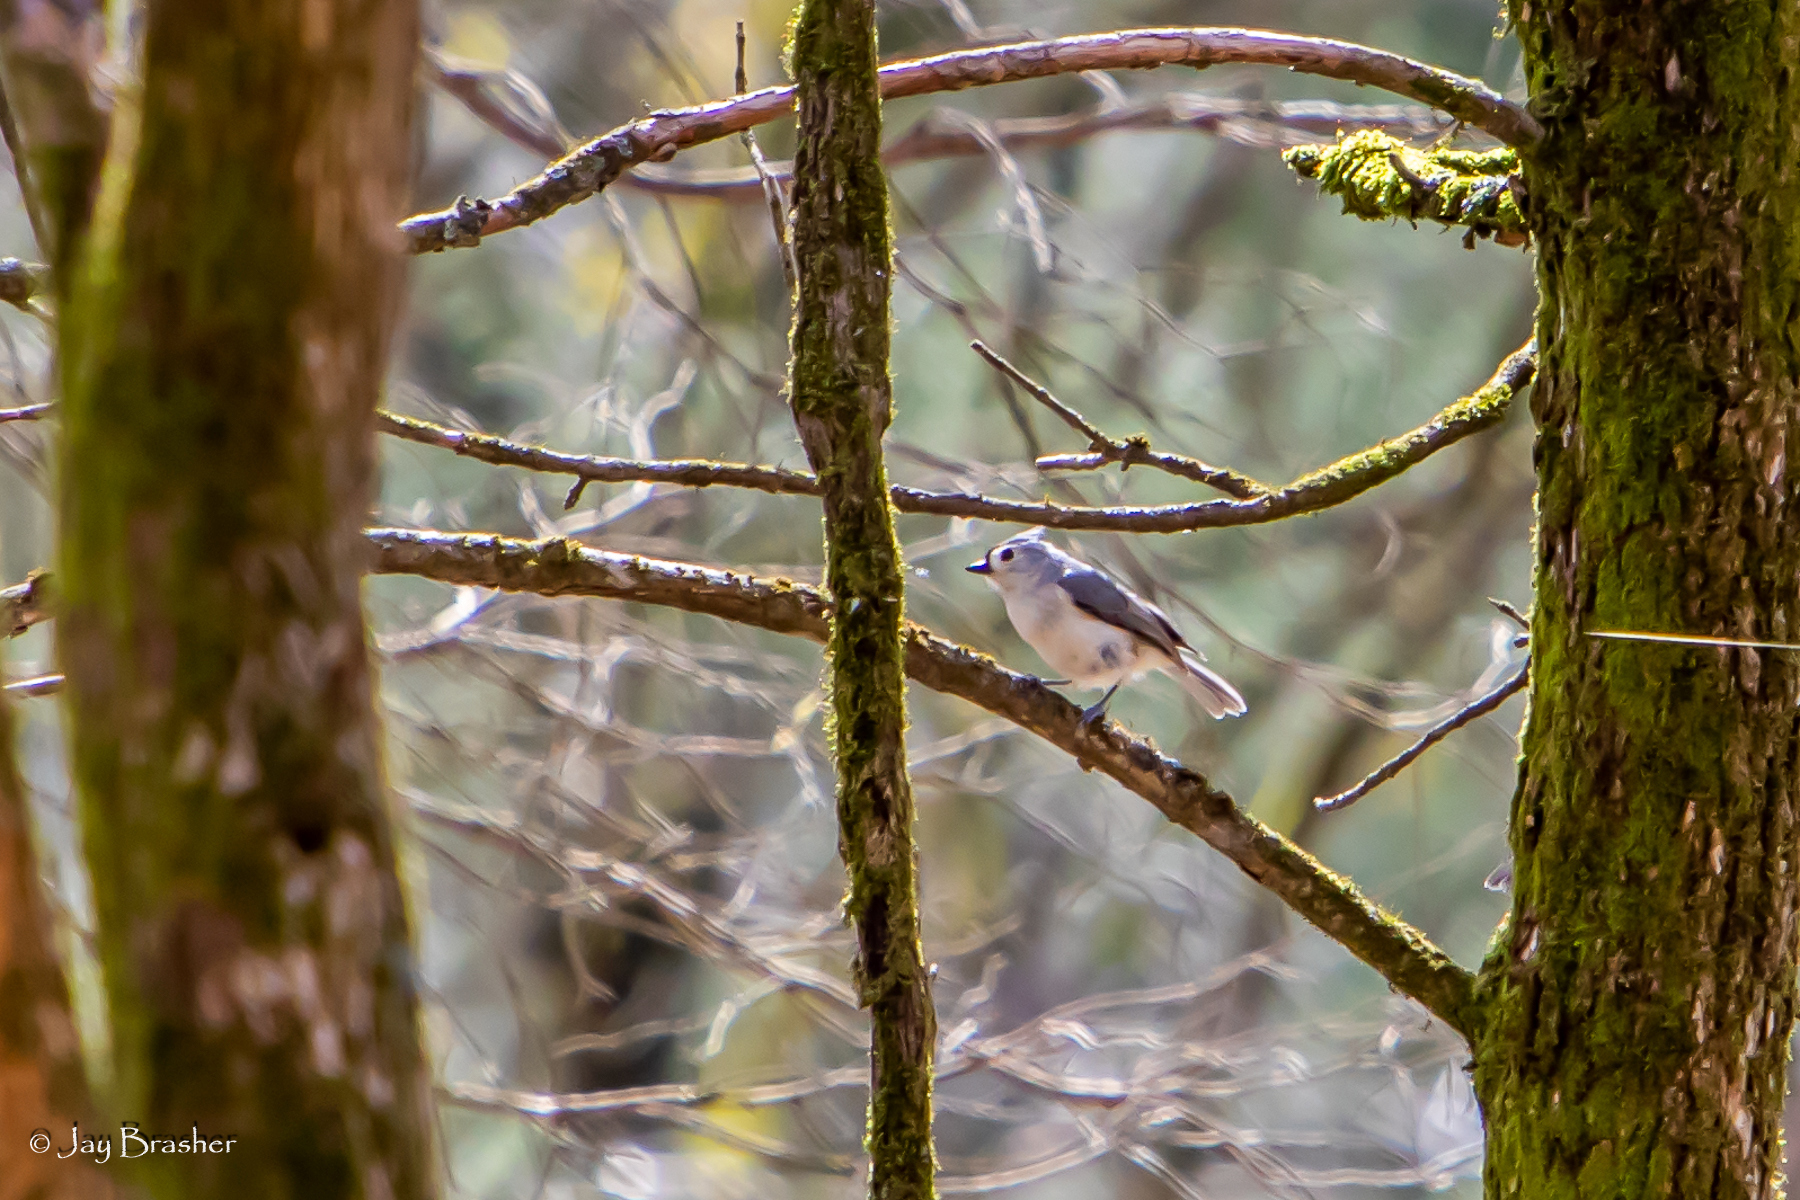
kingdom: Animalia
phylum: Chordata
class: Aves
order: Passeriformes
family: Paridae
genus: Baeolophus
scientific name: Baeolophus bicolor
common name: Tufted titmouse
